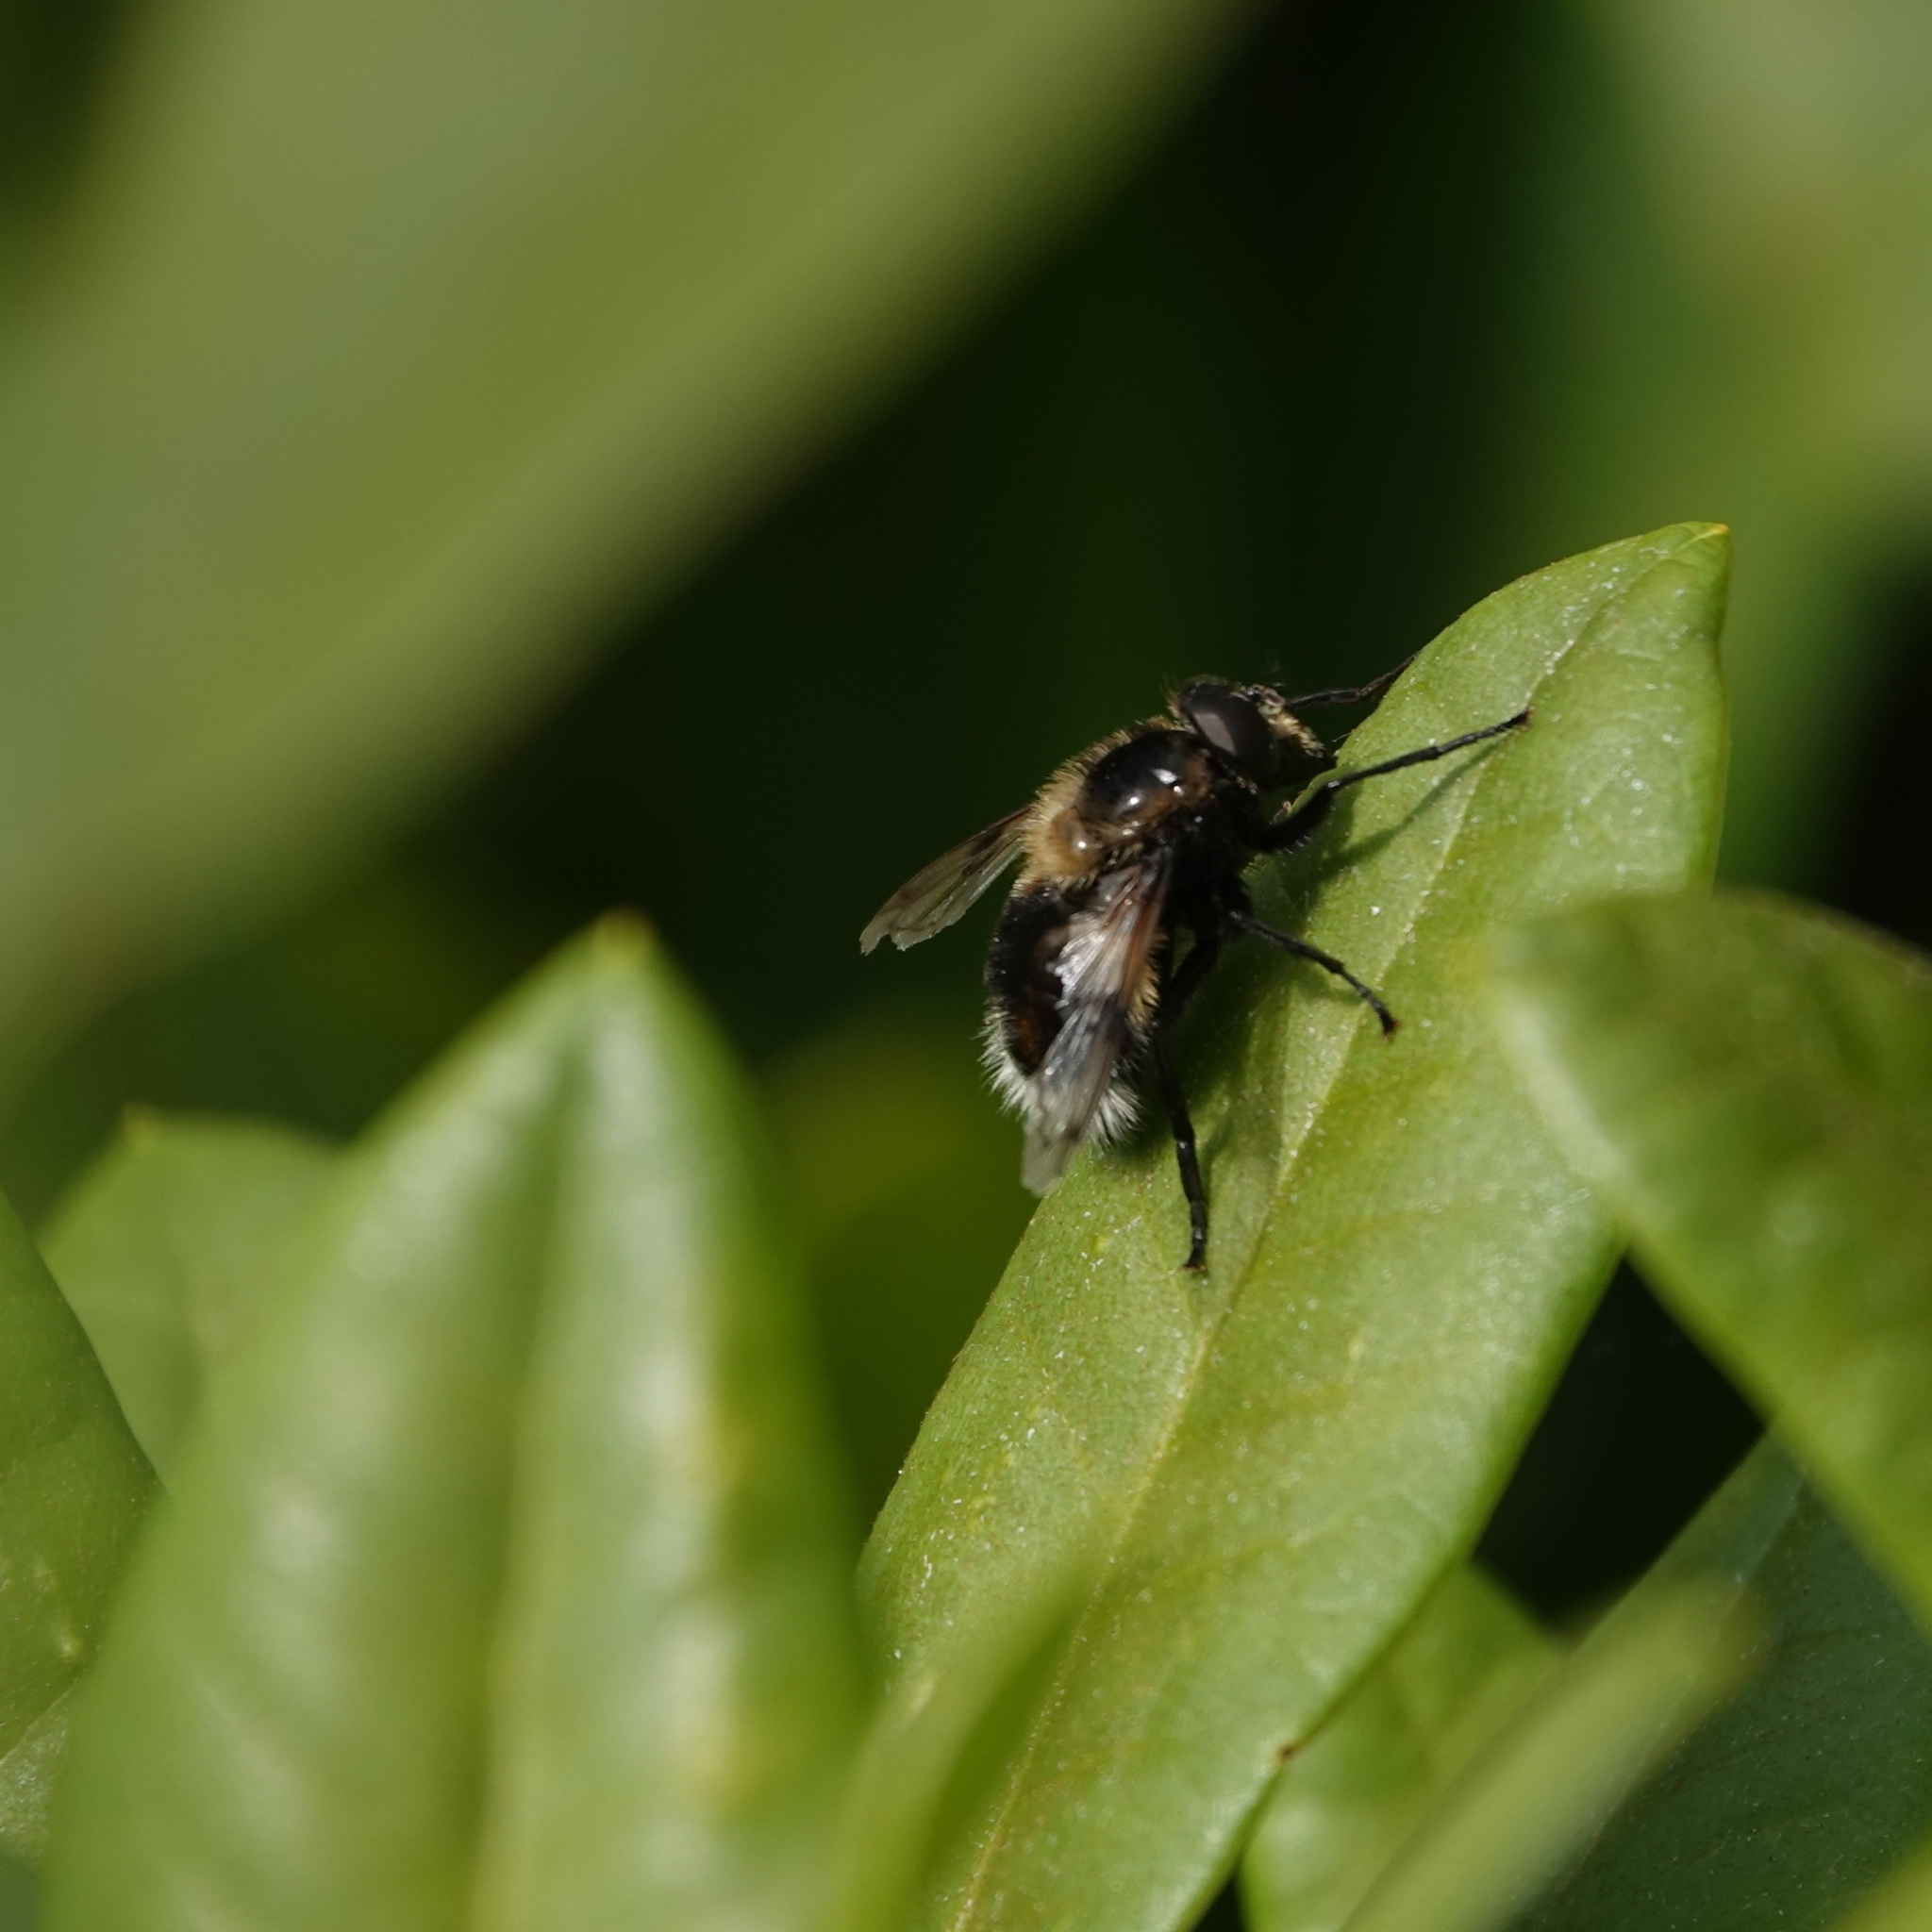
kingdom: Animalia
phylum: Arthropoda
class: Insecta
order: Diptera
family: Syrphidae
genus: Volucella
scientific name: Volucella bombylans
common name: Bumble bee hover fly
